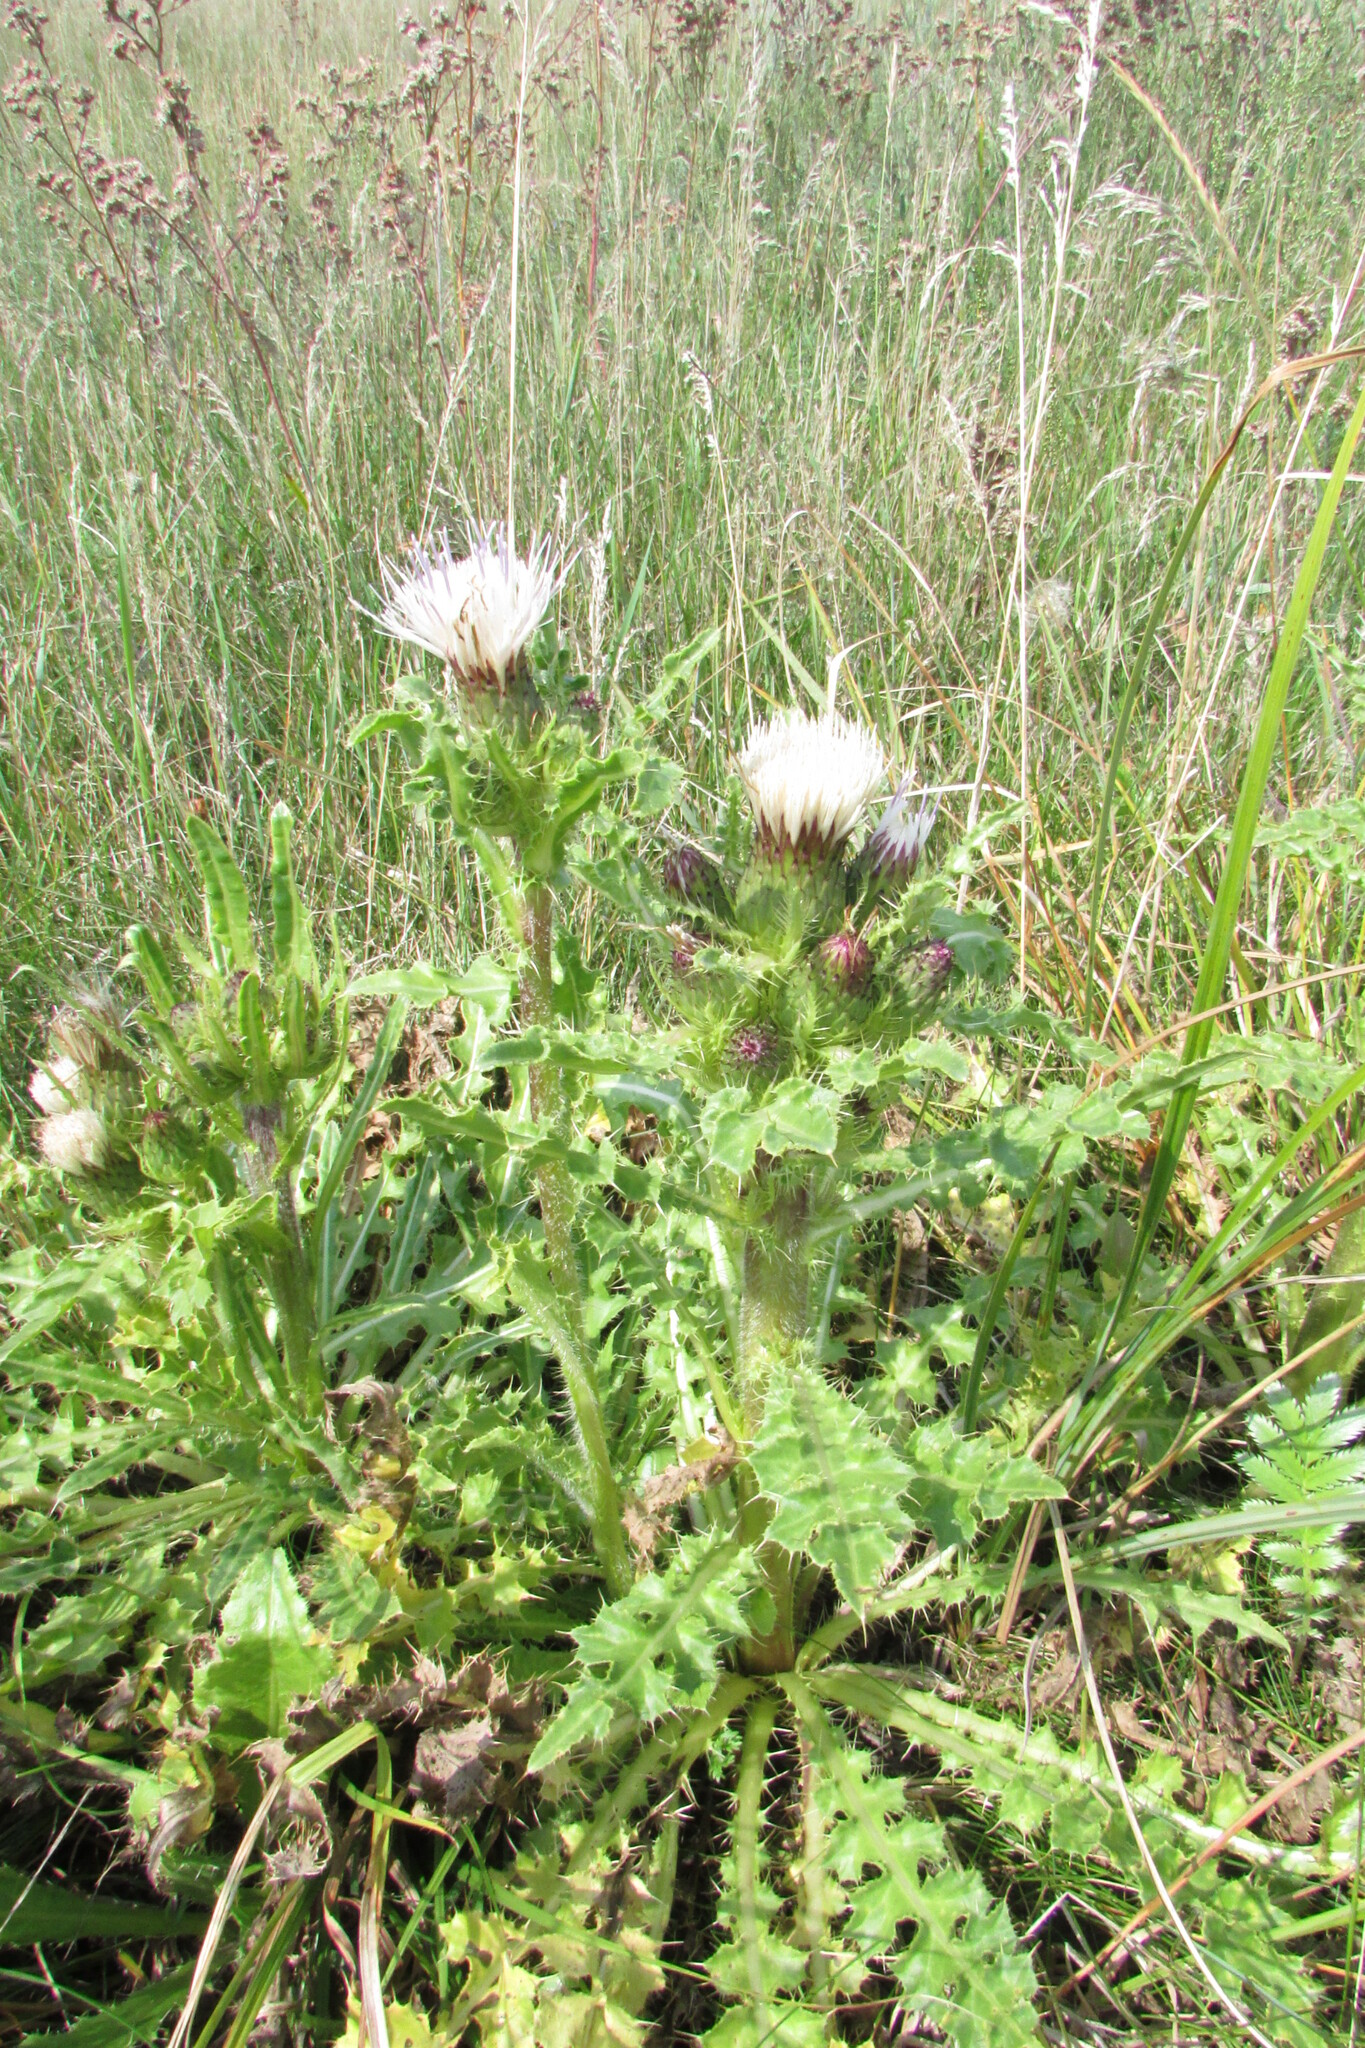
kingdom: Plantae
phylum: Tracheophyta
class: Magnoliopsida
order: Asterales
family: Asteraceae
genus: Cirsium
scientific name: Cirsium esculentum
